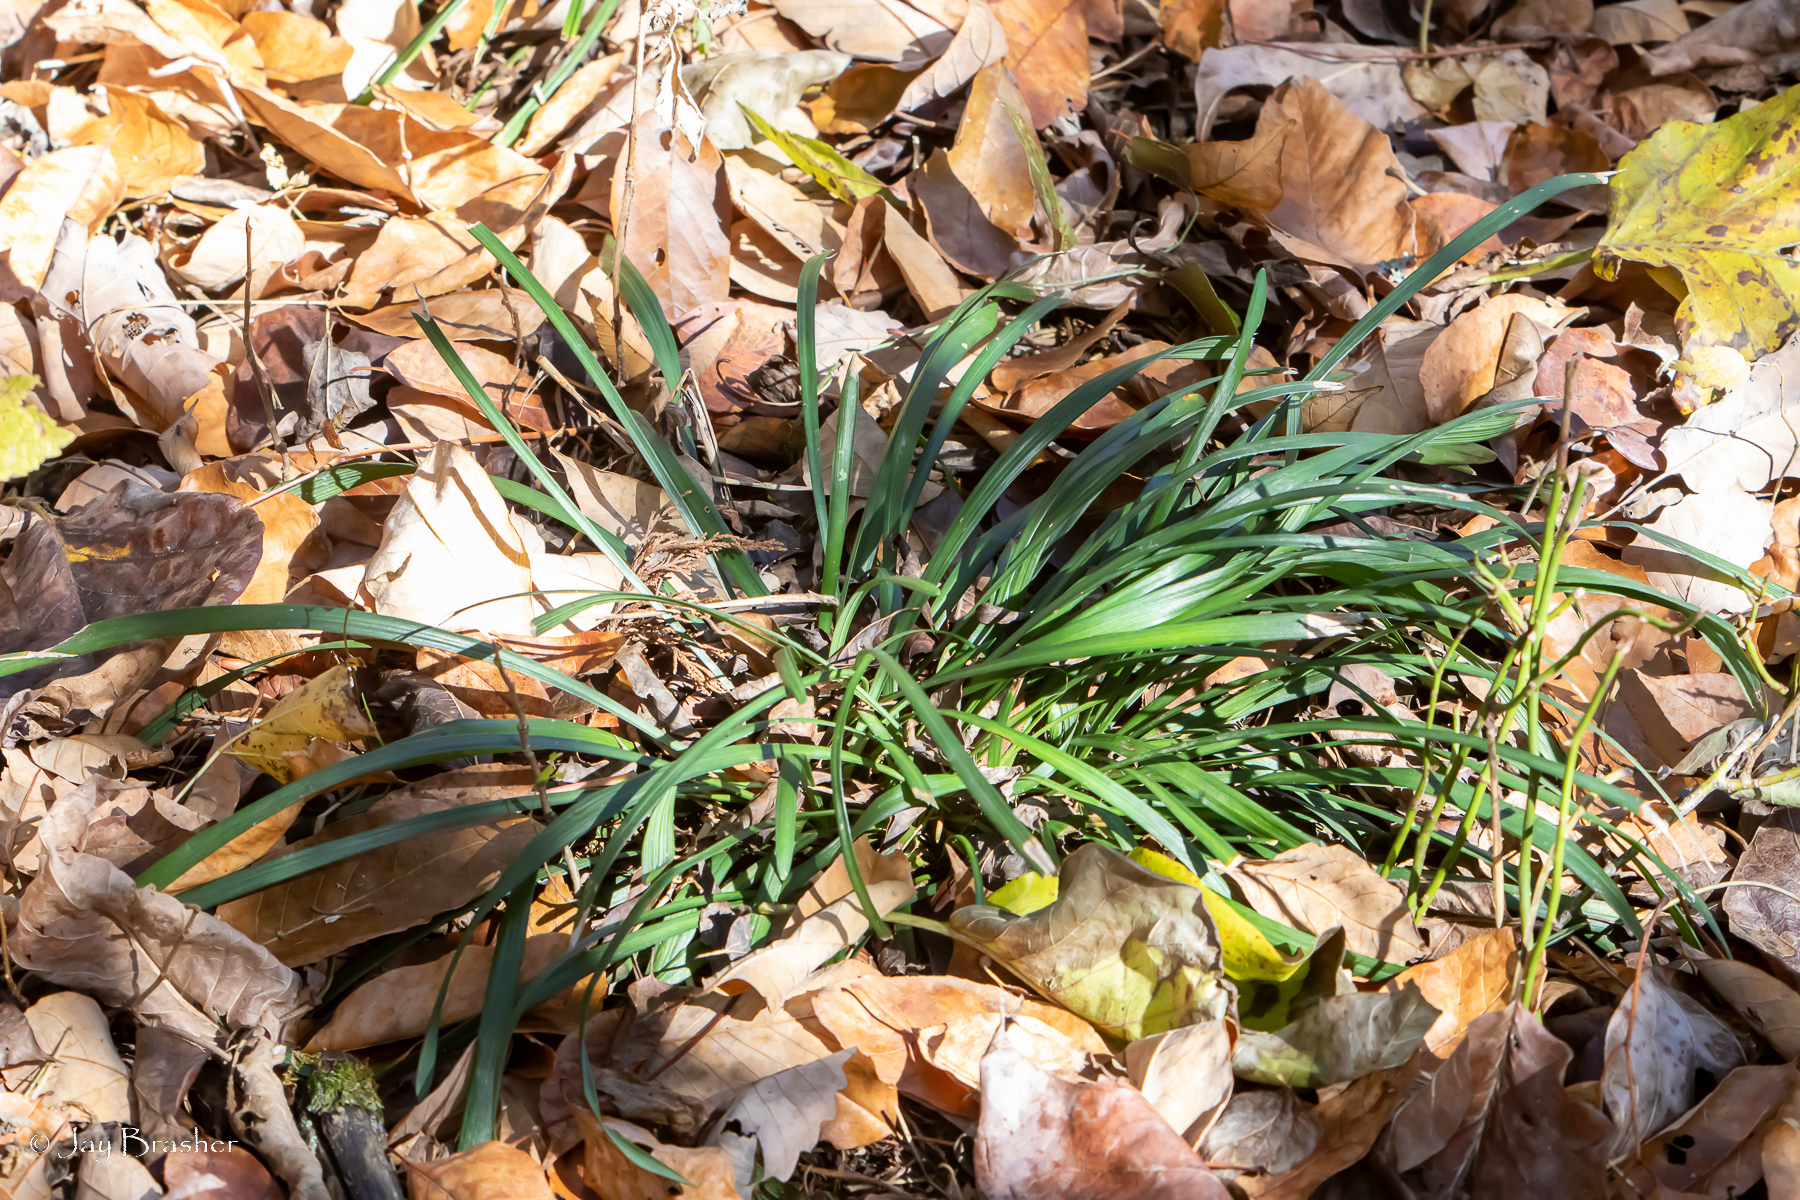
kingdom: Plantae
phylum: Tracheophyta
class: Liliopsida
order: Asparagales
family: Asparagaceae
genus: Liriope
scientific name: Liriope muscari
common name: Big blue lilyturf
